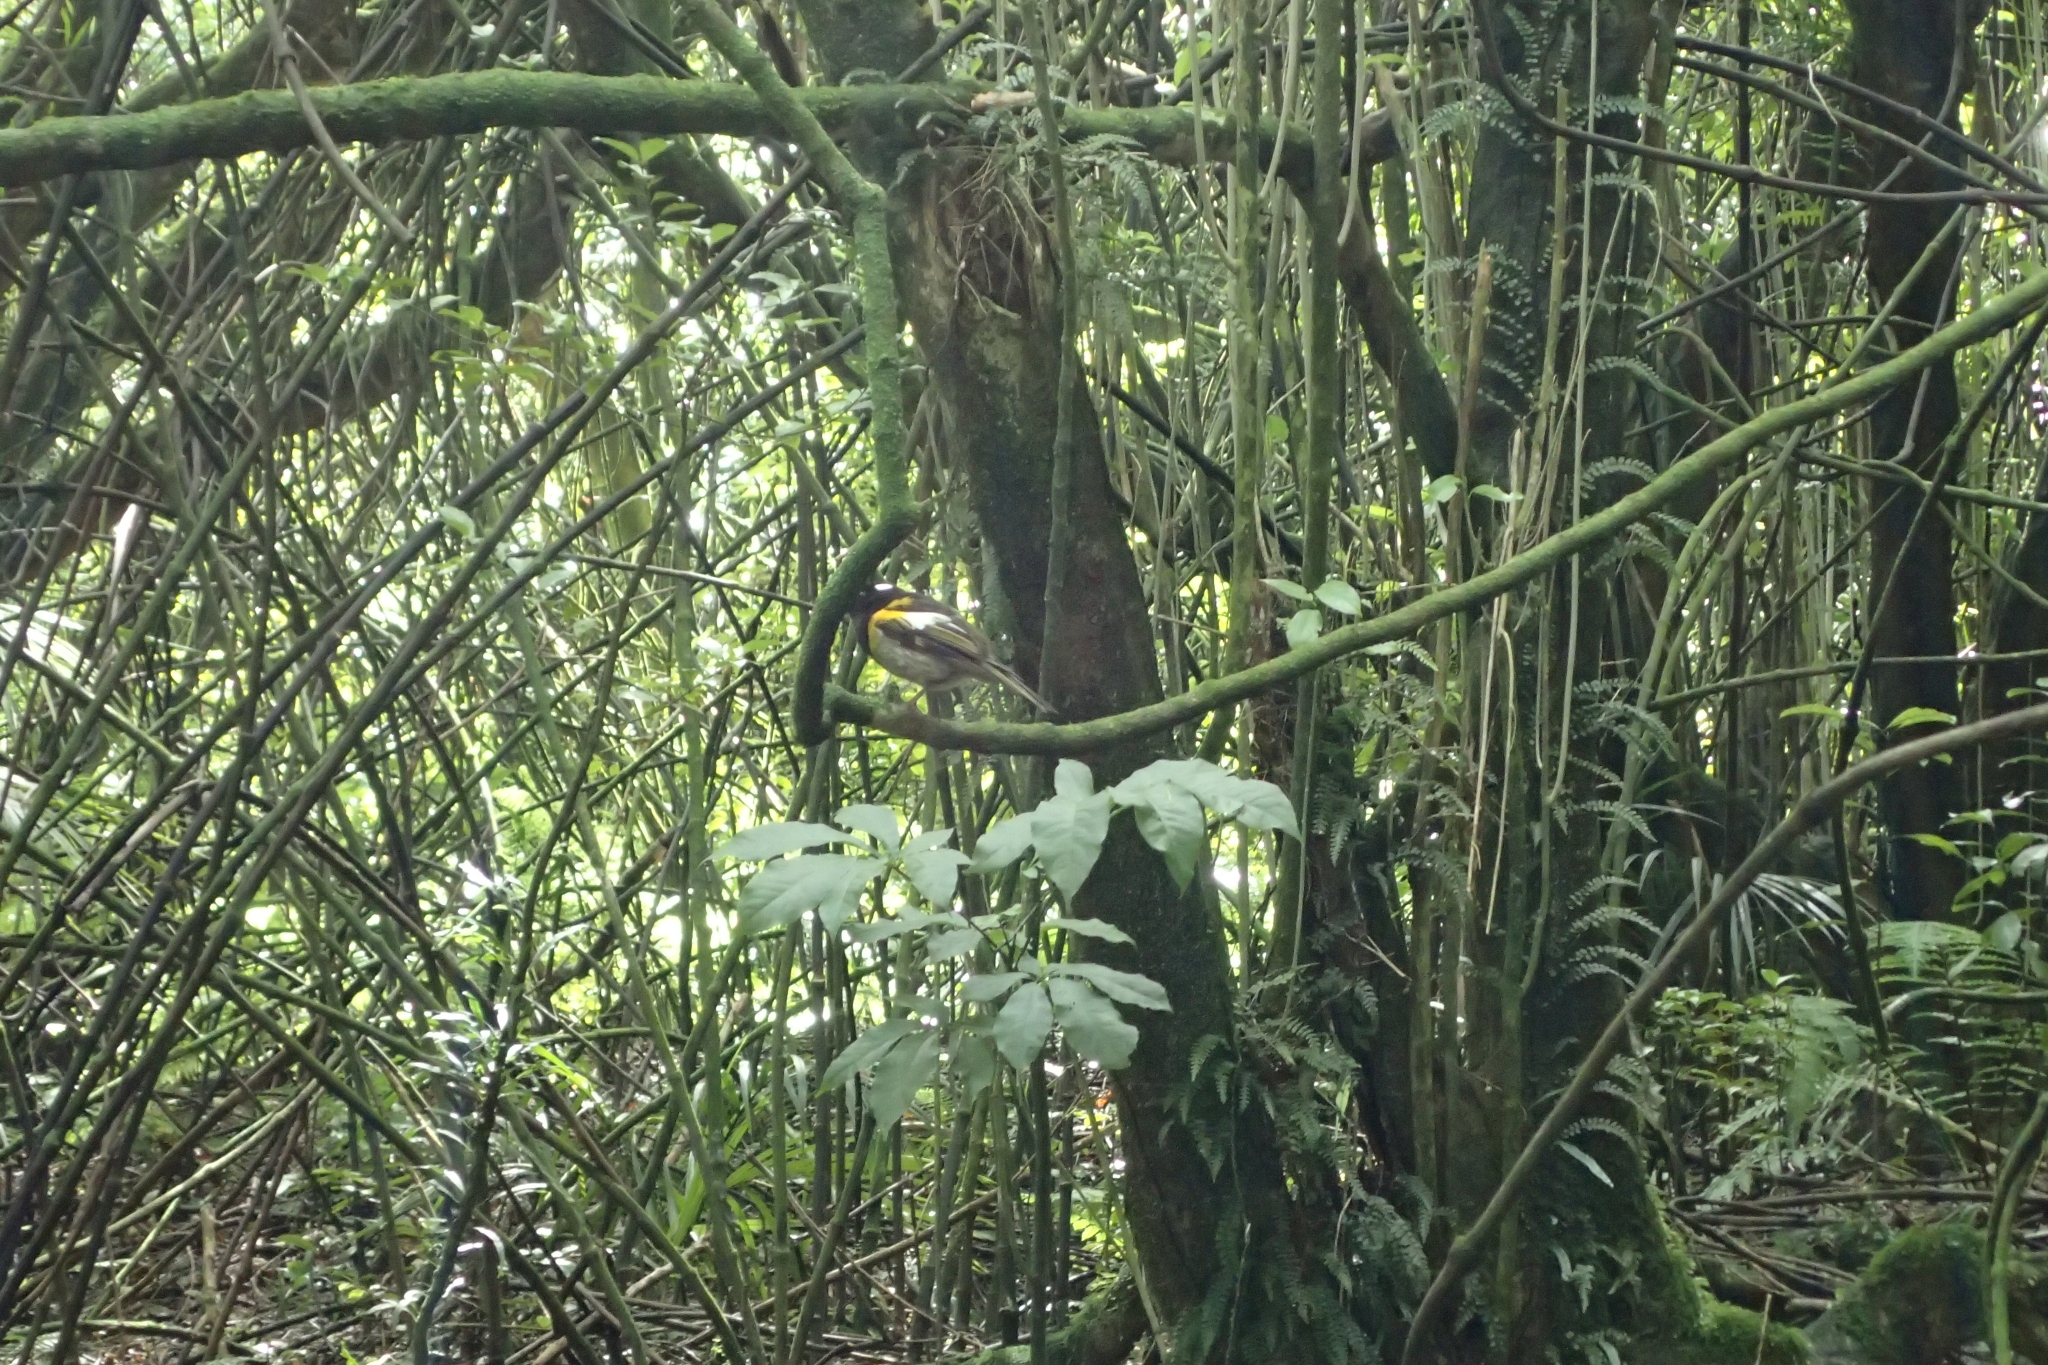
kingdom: Animalia
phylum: Chordata
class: Aves
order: Passeriformes
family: Notiomystidae
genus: Notiomystis
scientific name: Notiomystis cincta
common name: Stitchbird
